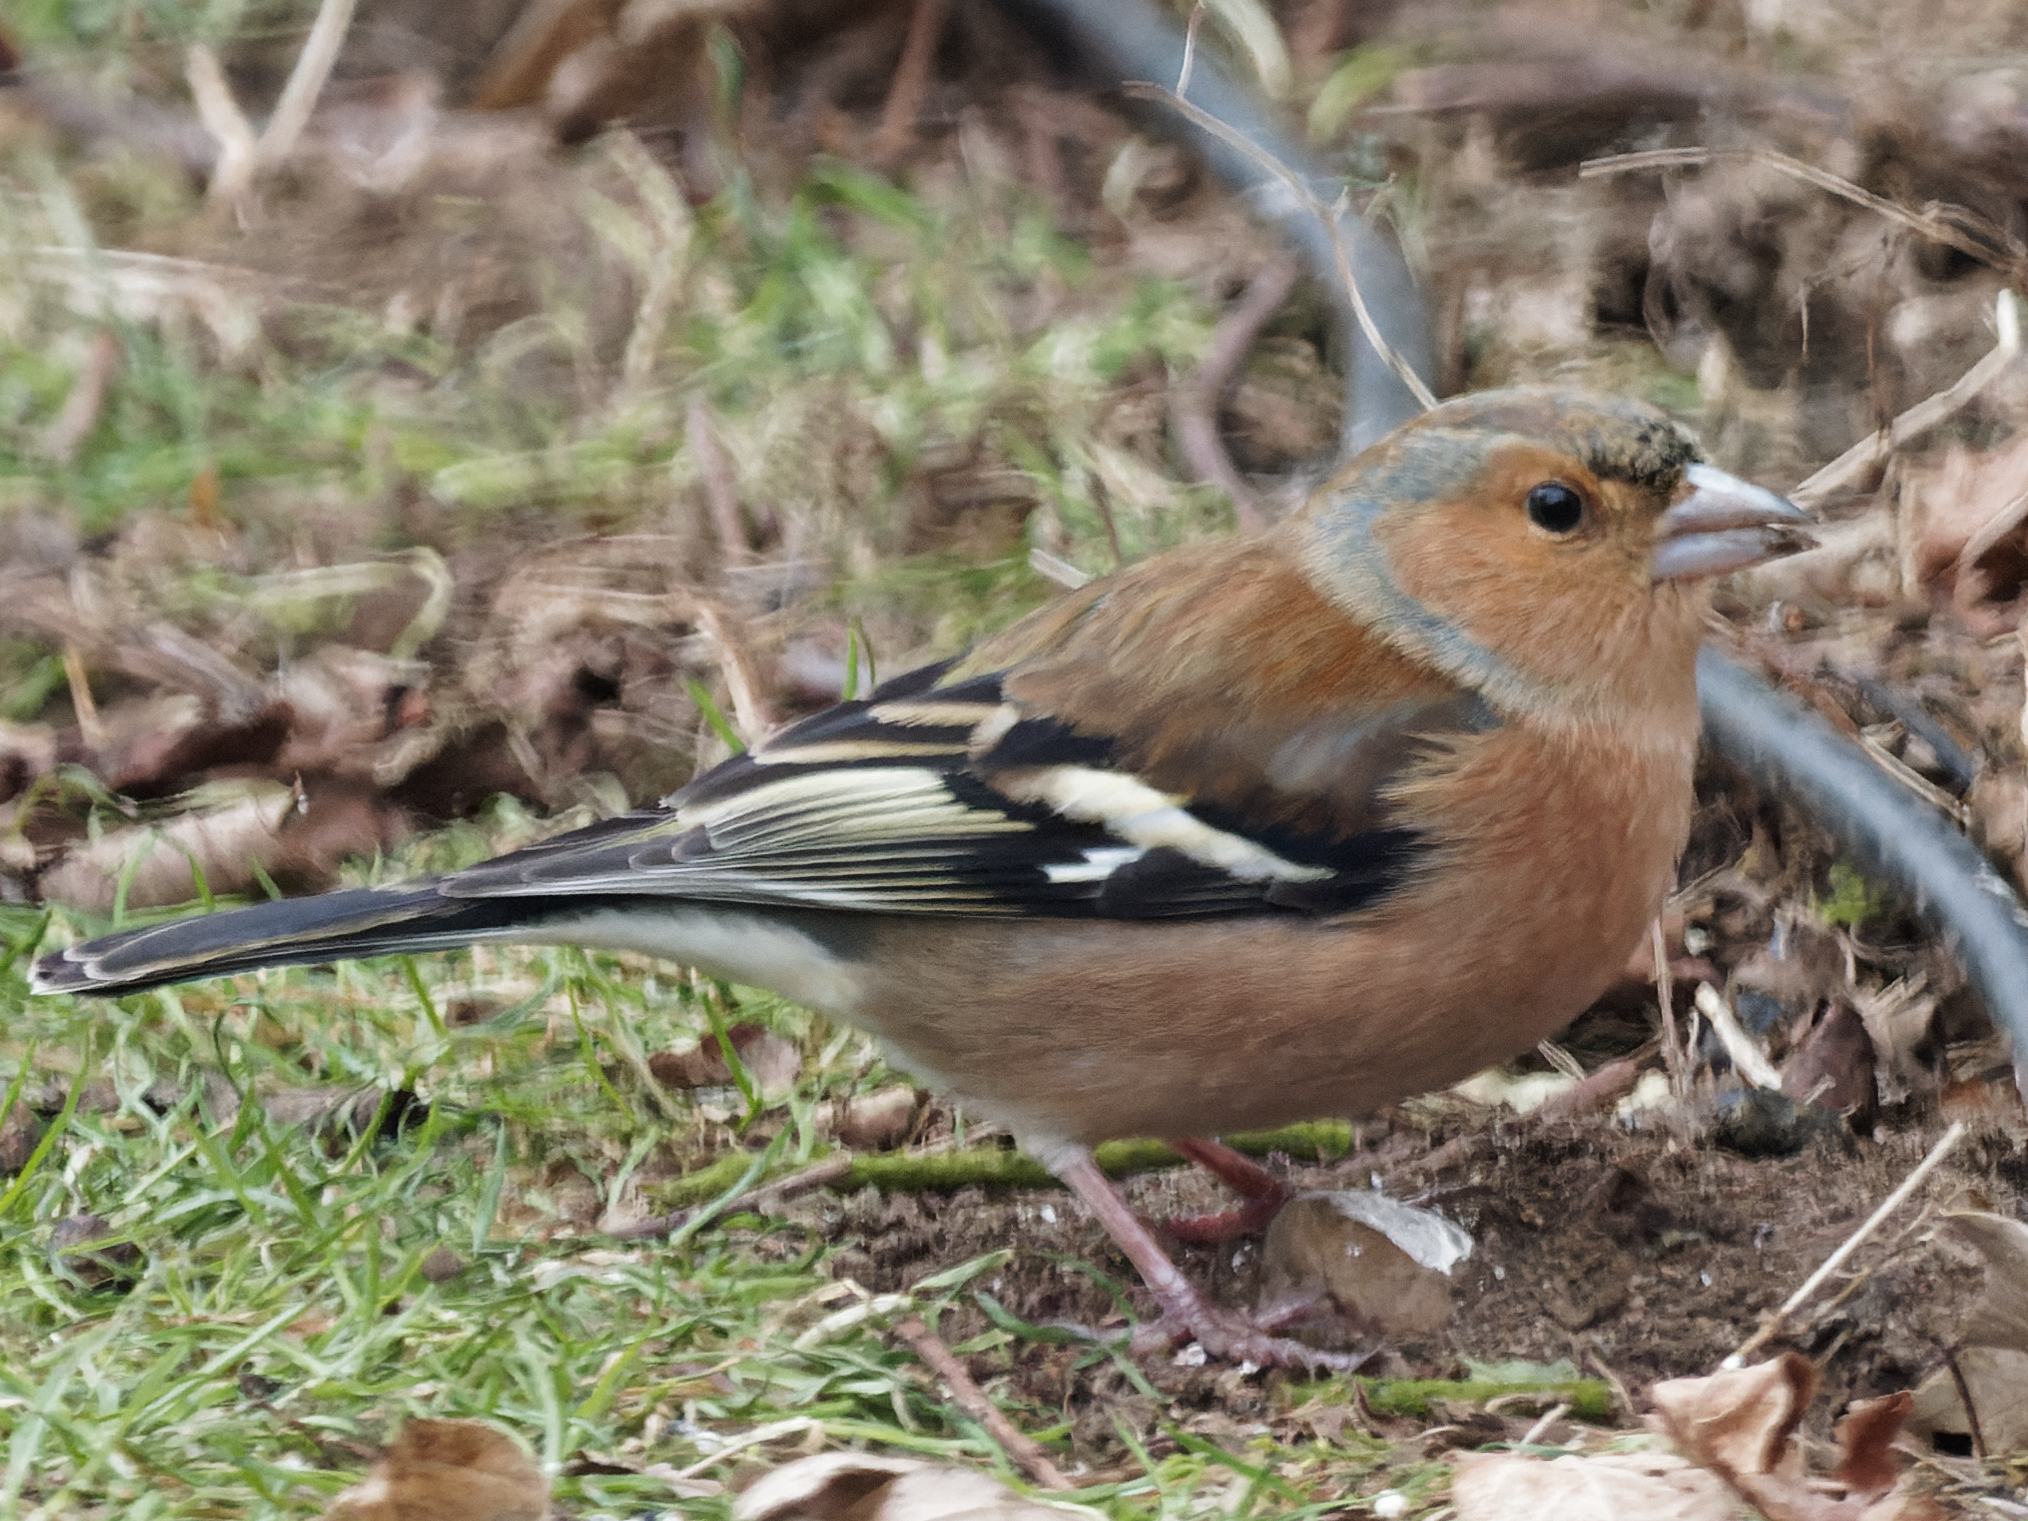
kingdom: Animalia
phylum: Chordata
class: Aves
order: Passeriformes
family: Fringillidae
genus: Fringilla
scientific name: Fringilla coelebs
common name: Common chaffinch
